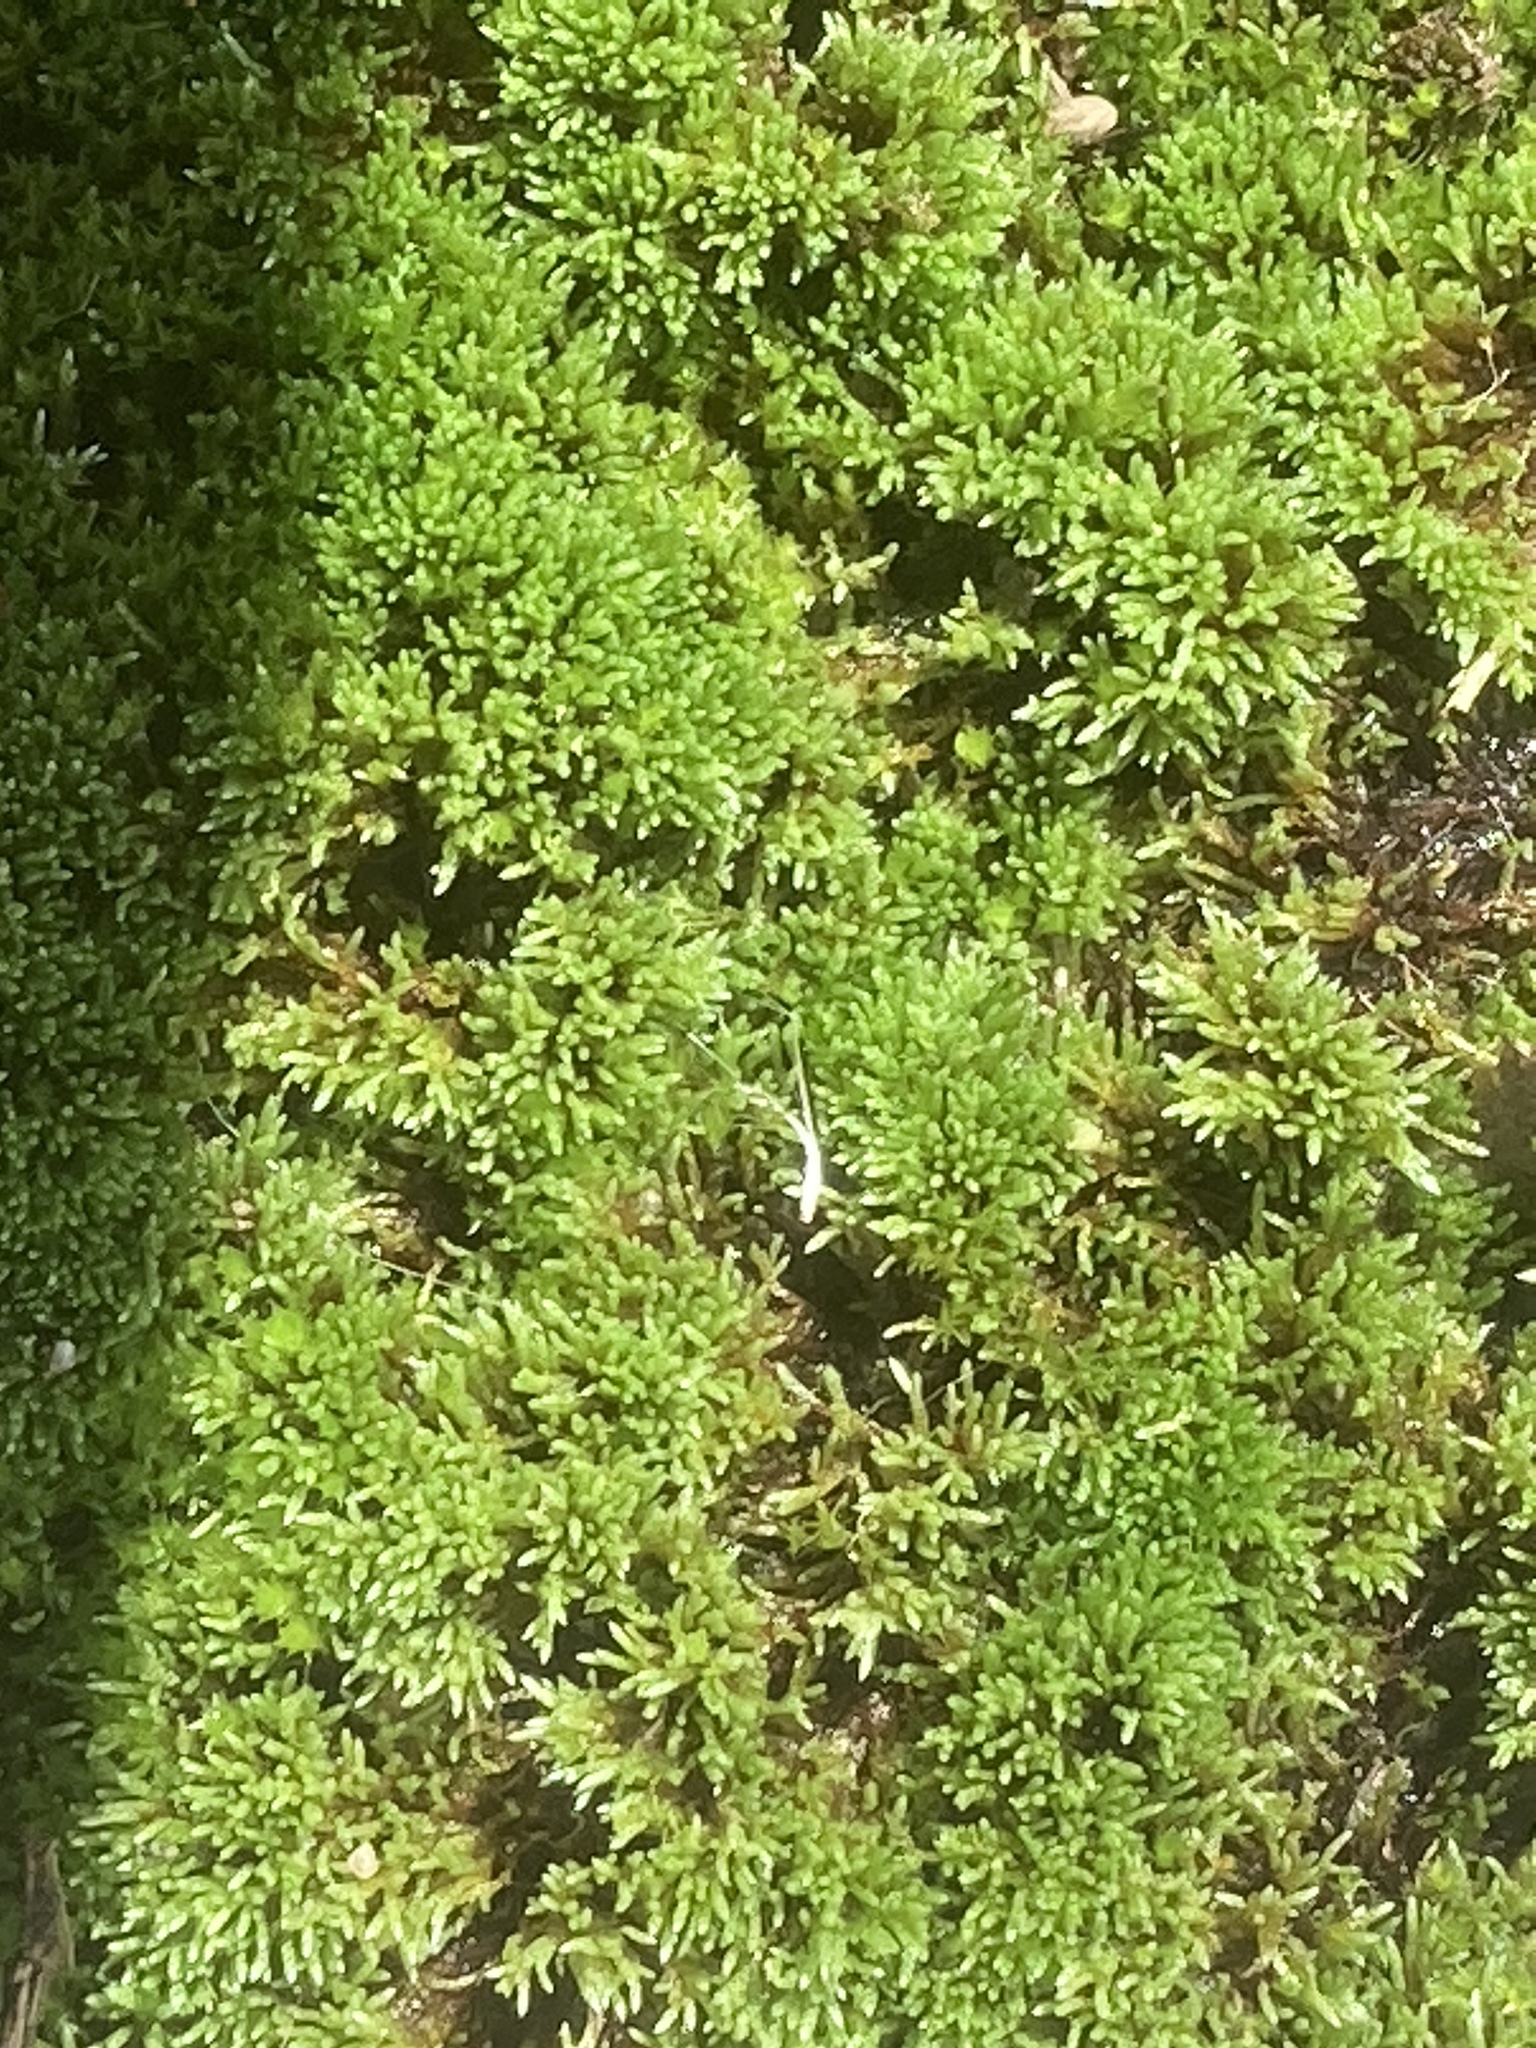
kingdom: Plantae
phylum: Bryophyta
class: Bryopsida
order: Bryales
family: Bryaceae
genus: Bryum
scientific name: Bryum argenteum
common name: Silver-moss
